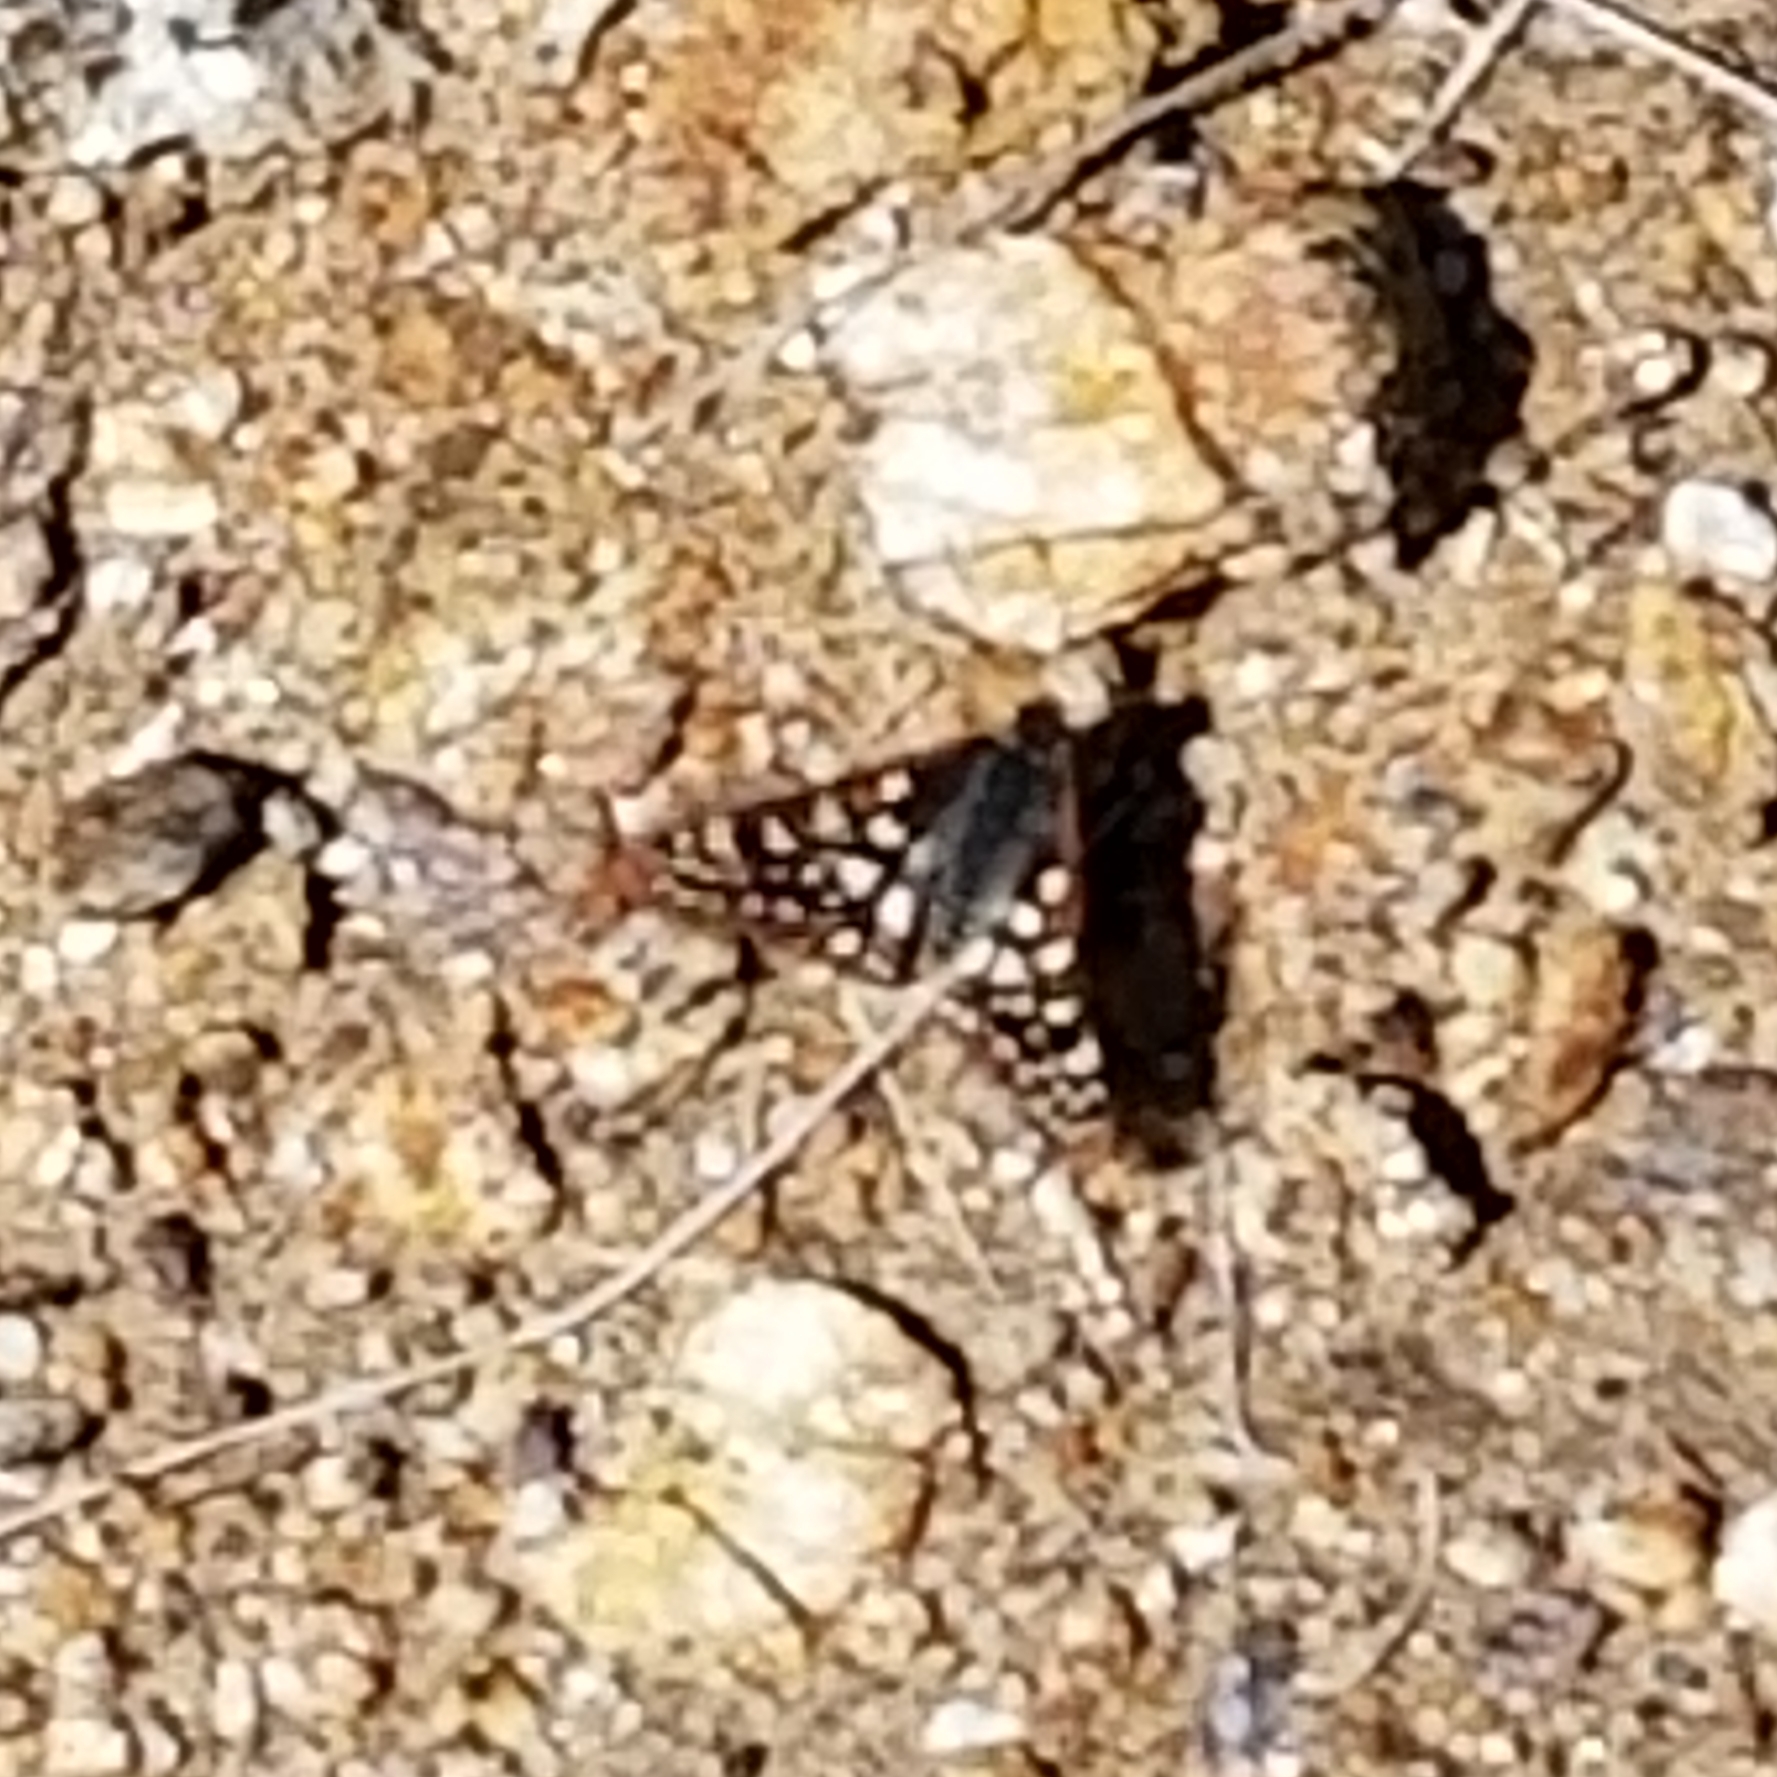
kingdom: Animalia
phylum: Arthropoda
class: Insecta
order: Lepidoptera
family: Nymphalidae
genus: Occidryas
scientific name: Occidryas chalcedona
